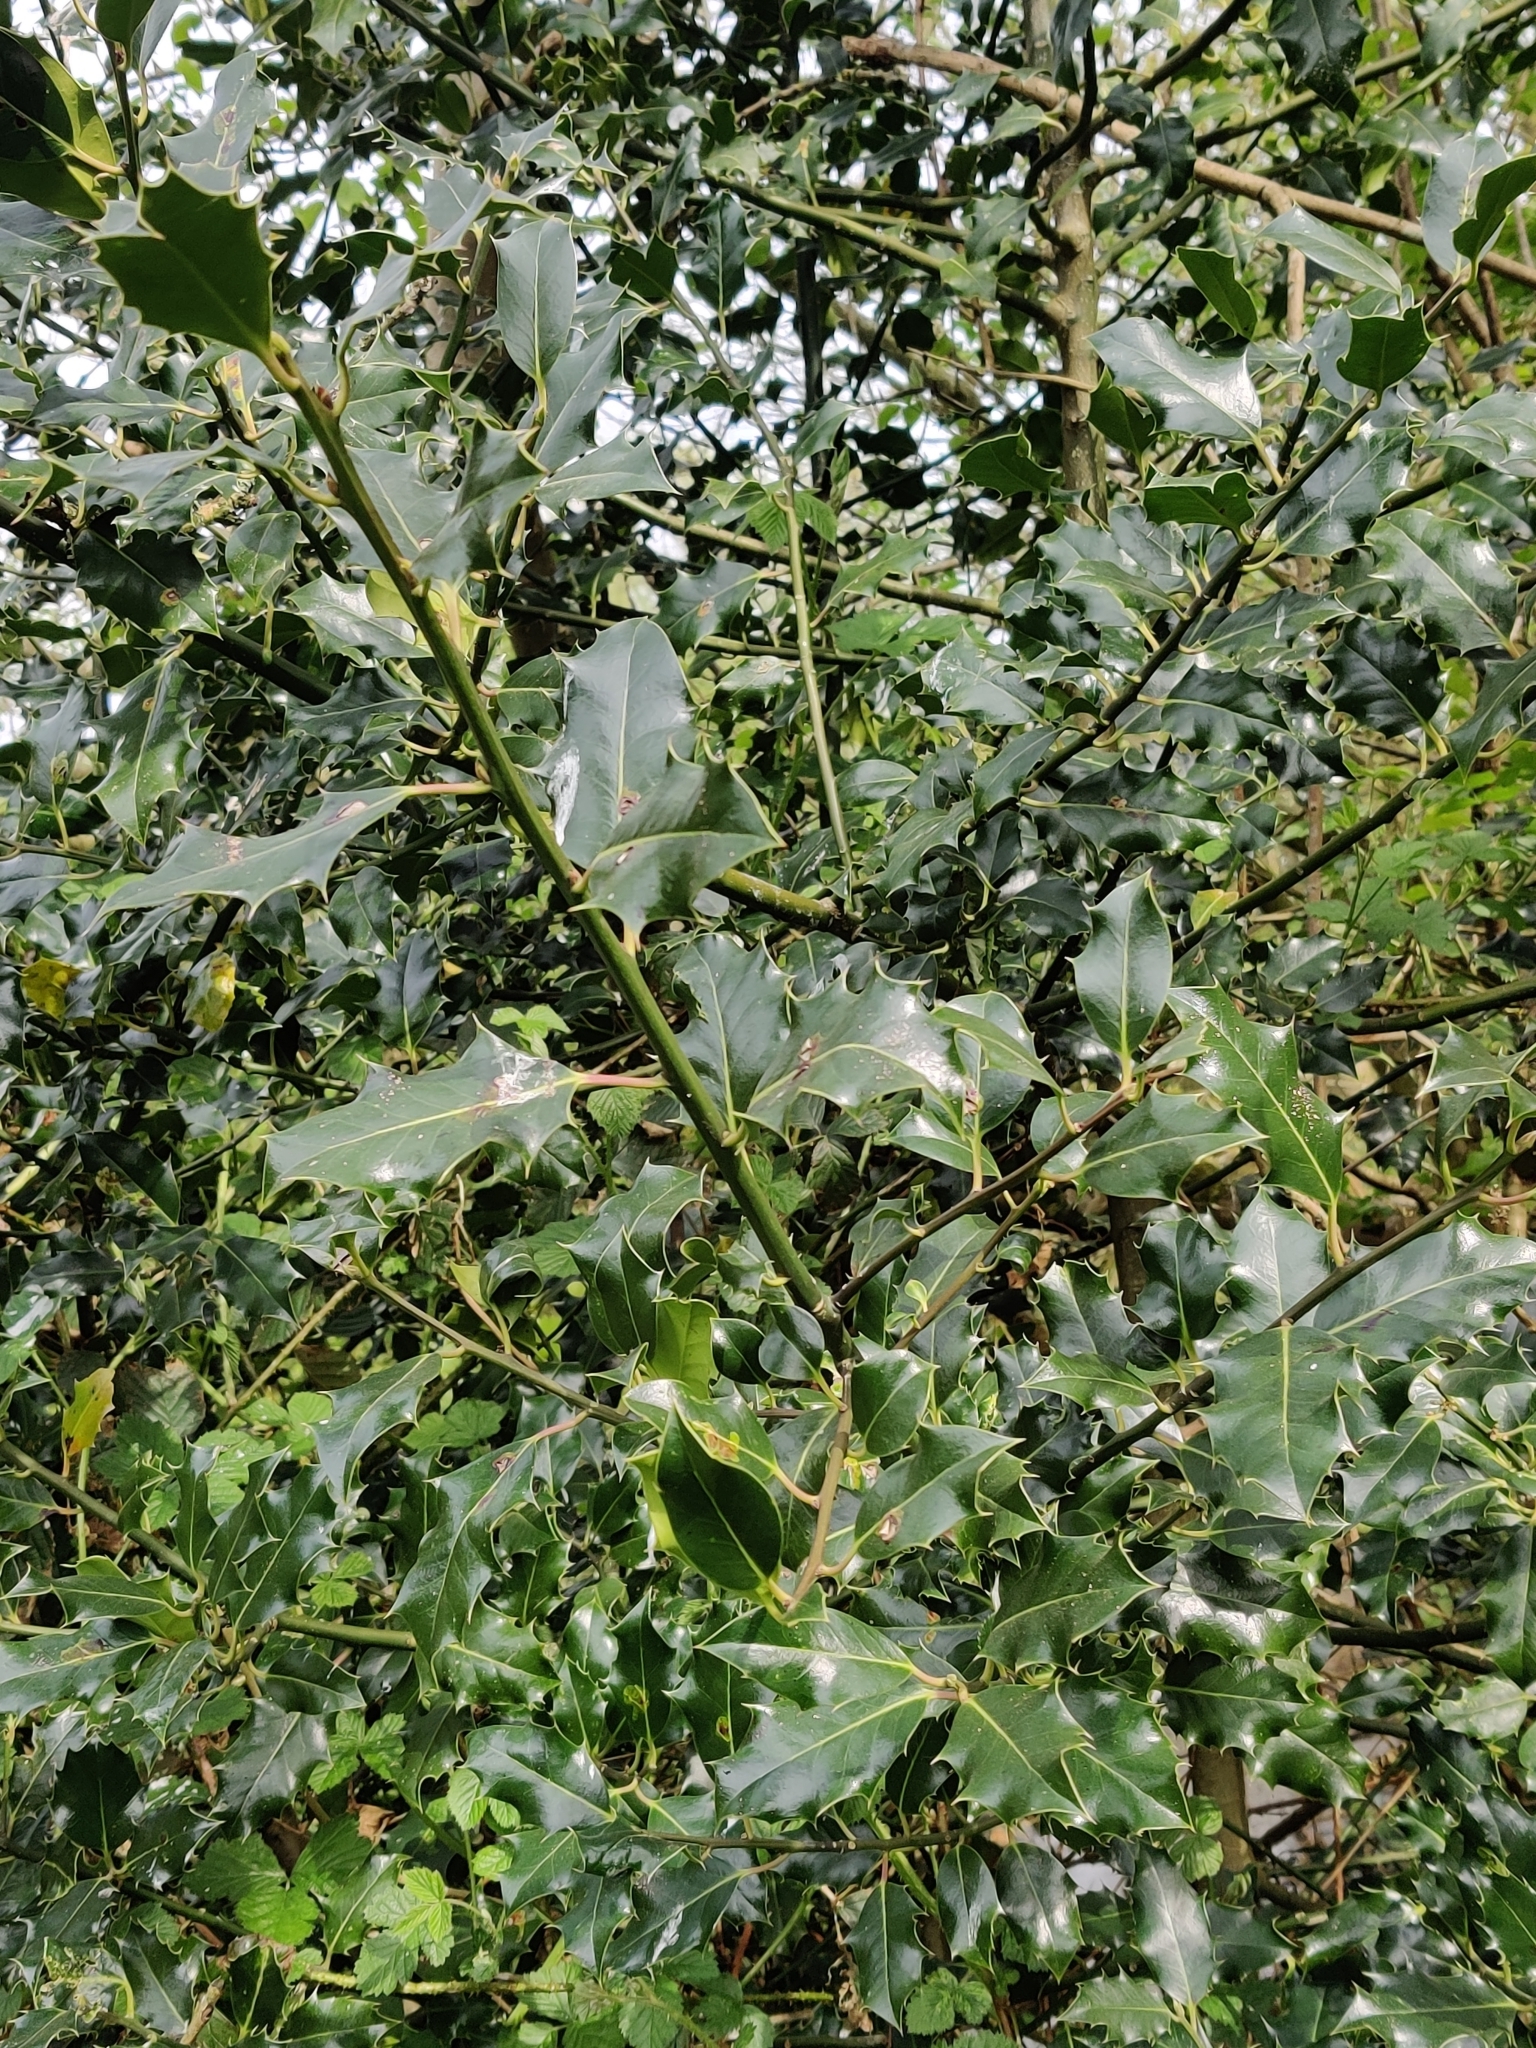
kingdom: Plantae
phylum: Tracheophyta
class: Magnoliopsida
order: Aquifoliales
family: Aquifoliaceae
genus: Ilex
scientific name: Ilex aquifolium
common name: English holly
